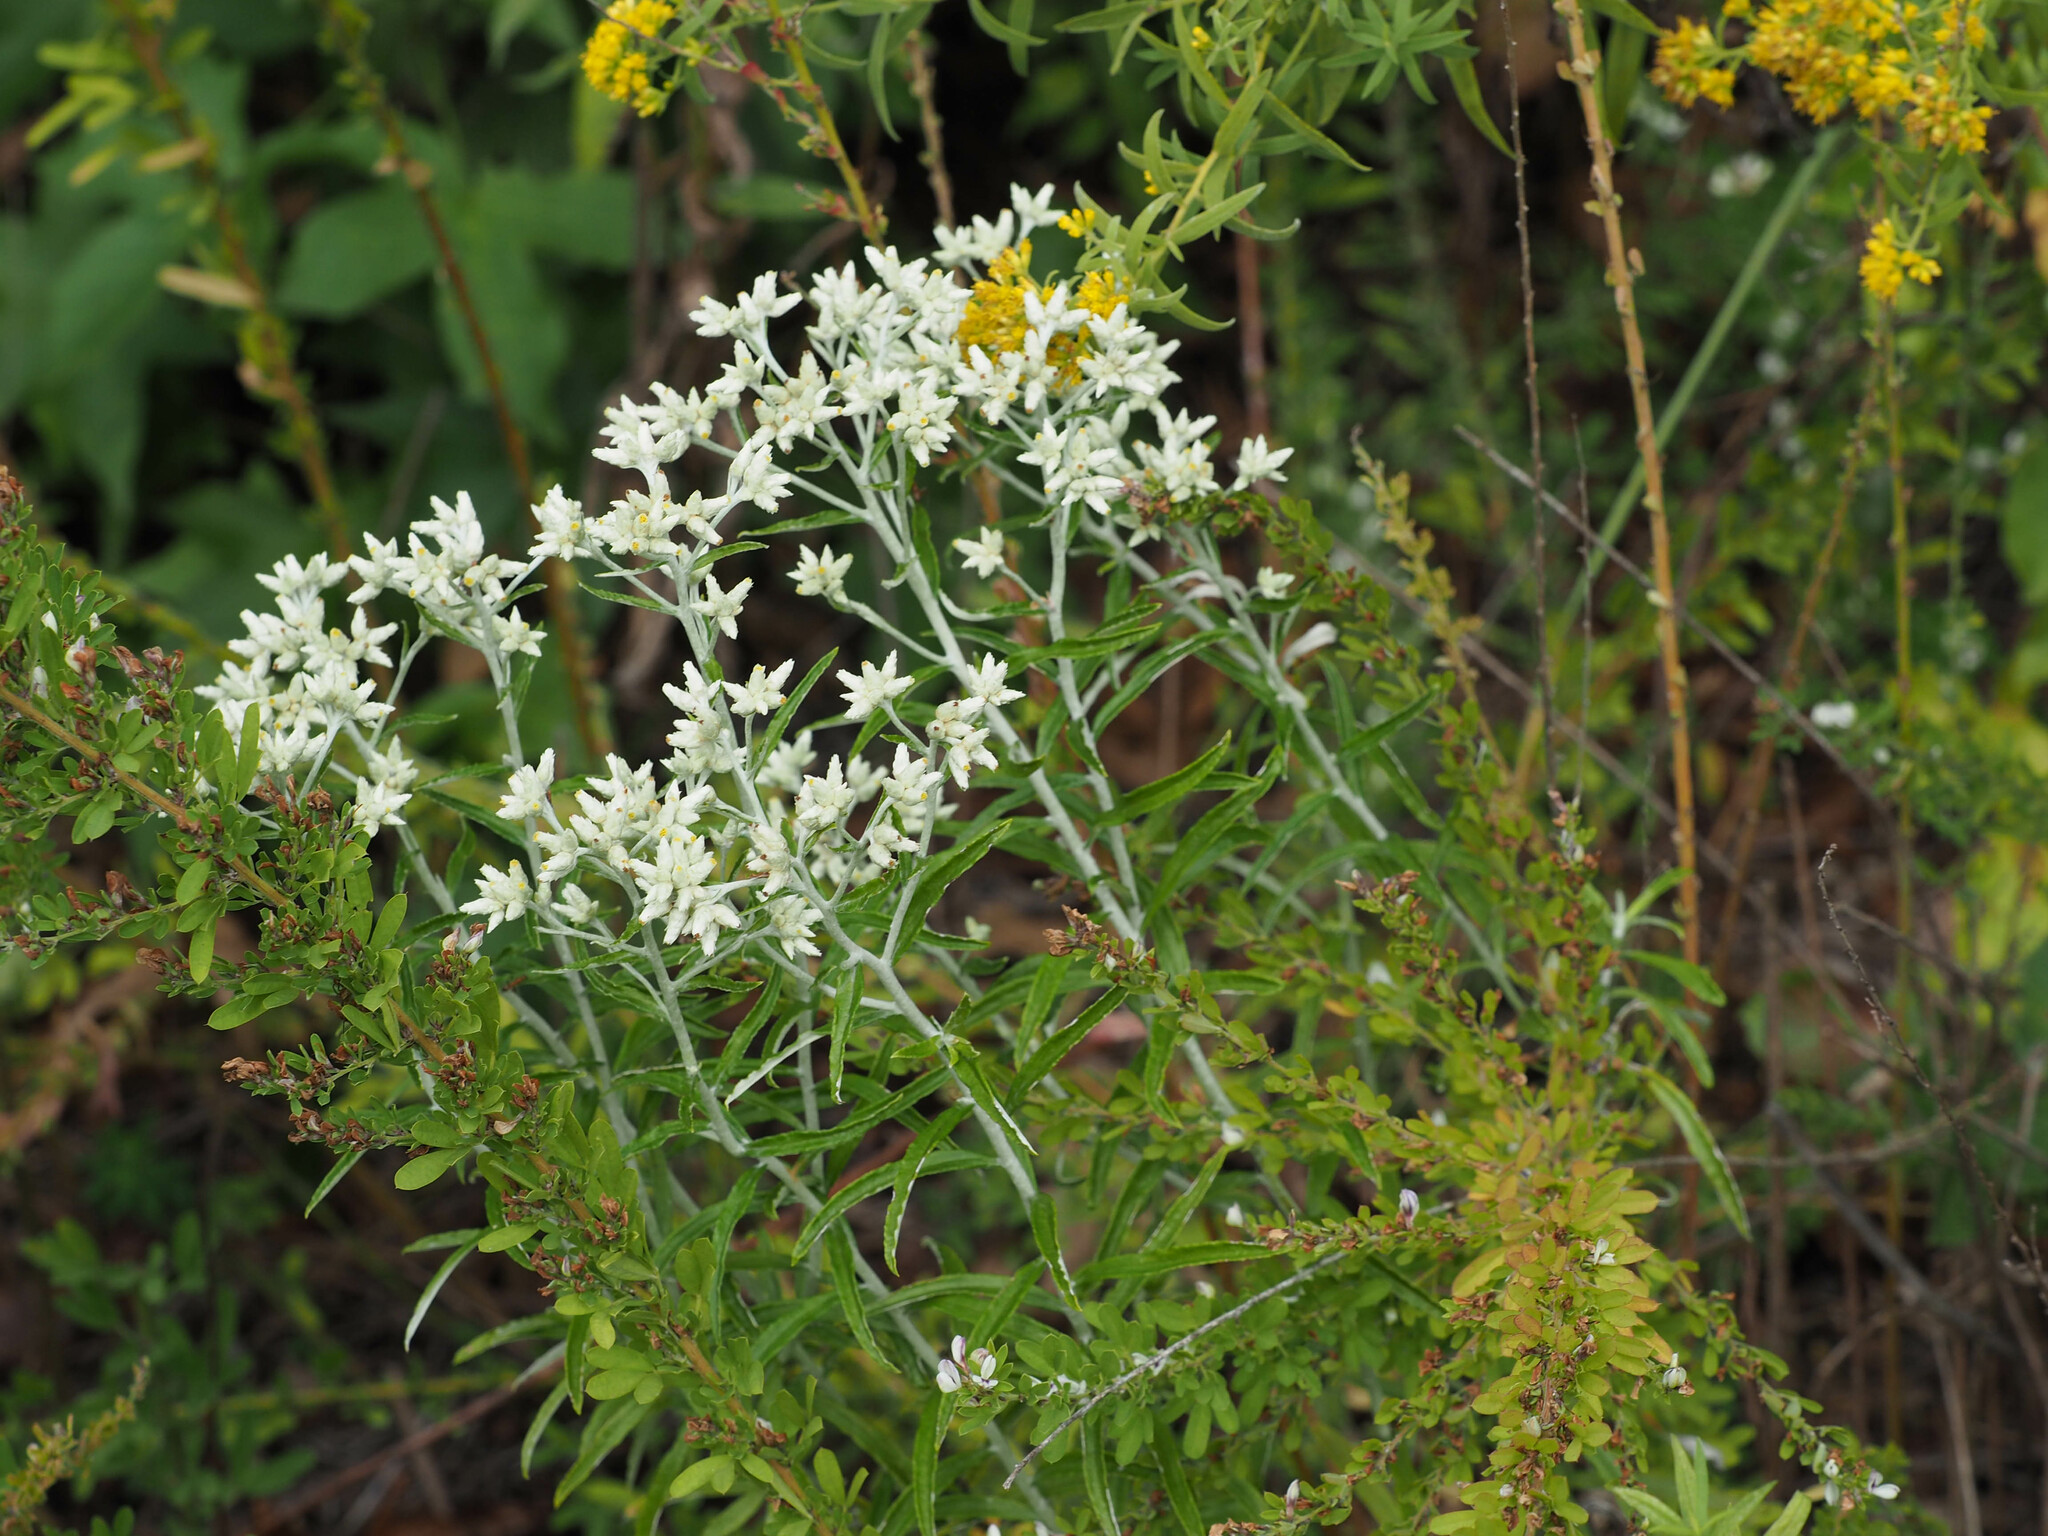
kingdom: Plantae
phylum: Tracheophyta
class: Magnoliopsida
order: Asterales
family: Asteraceae
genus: Pseudognaphalium
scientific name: Pseudognaphalium obtusifolium
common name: Eastern rabbit-tobacco
